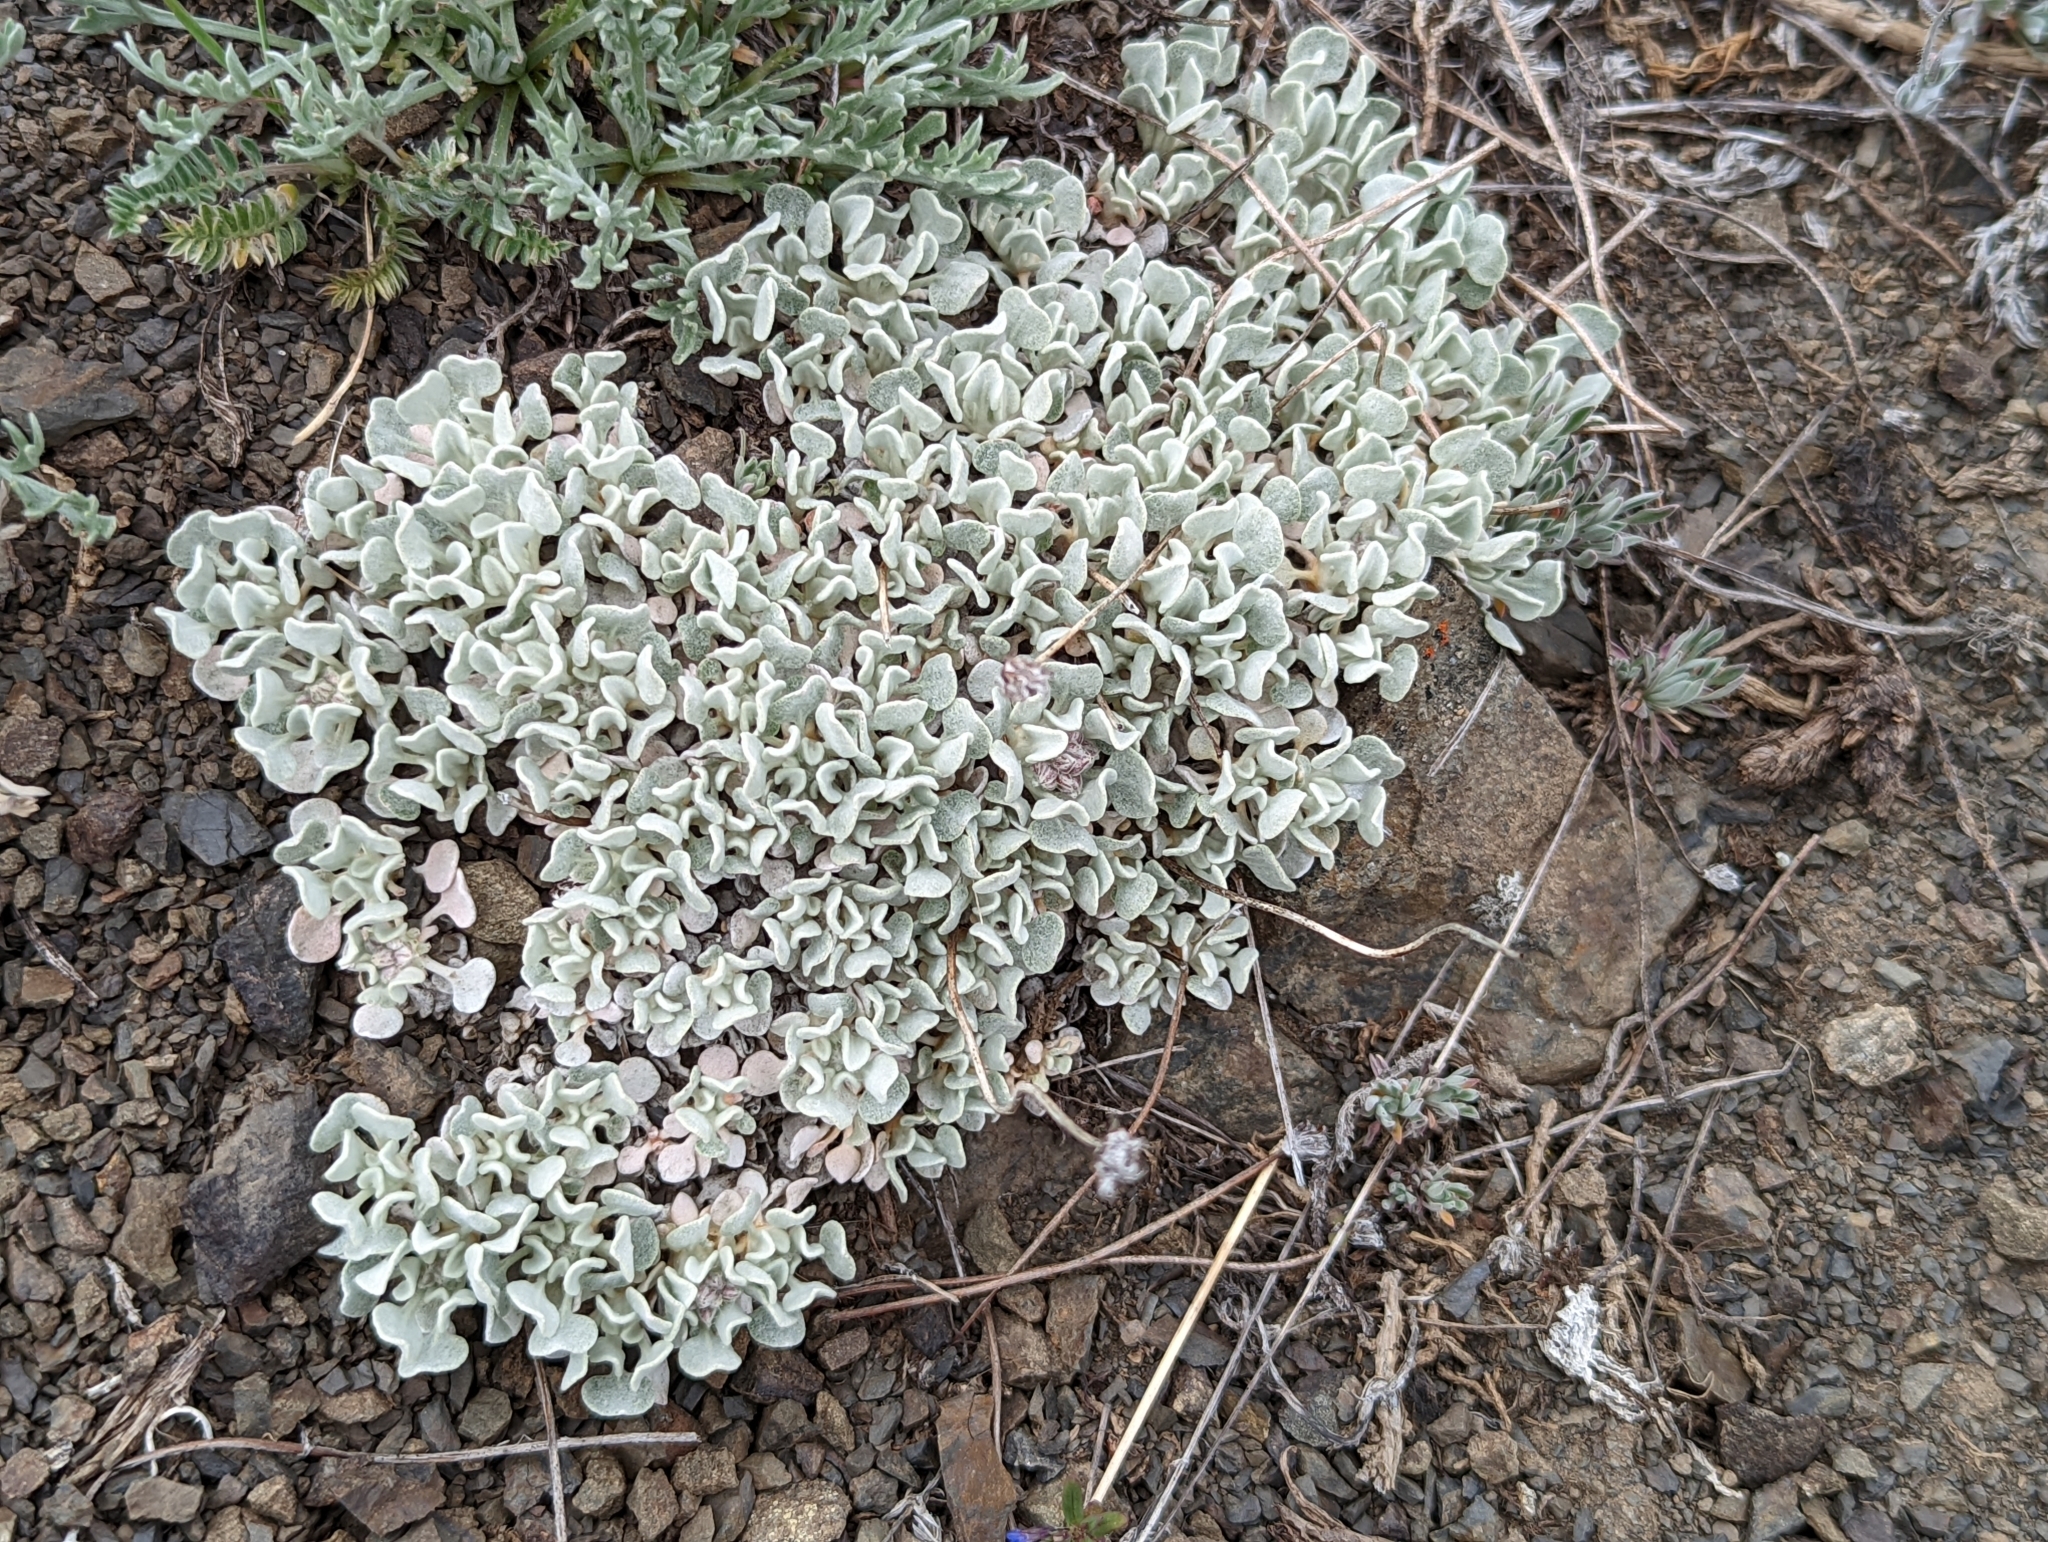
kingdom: Plantae
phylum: Tracheophyta
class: Magnoliopsida
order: Caryophyllales
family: Polygonaceae
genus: Eriogonum
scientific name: Eriogonum ovalifolium
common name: Cushion buckwheat
